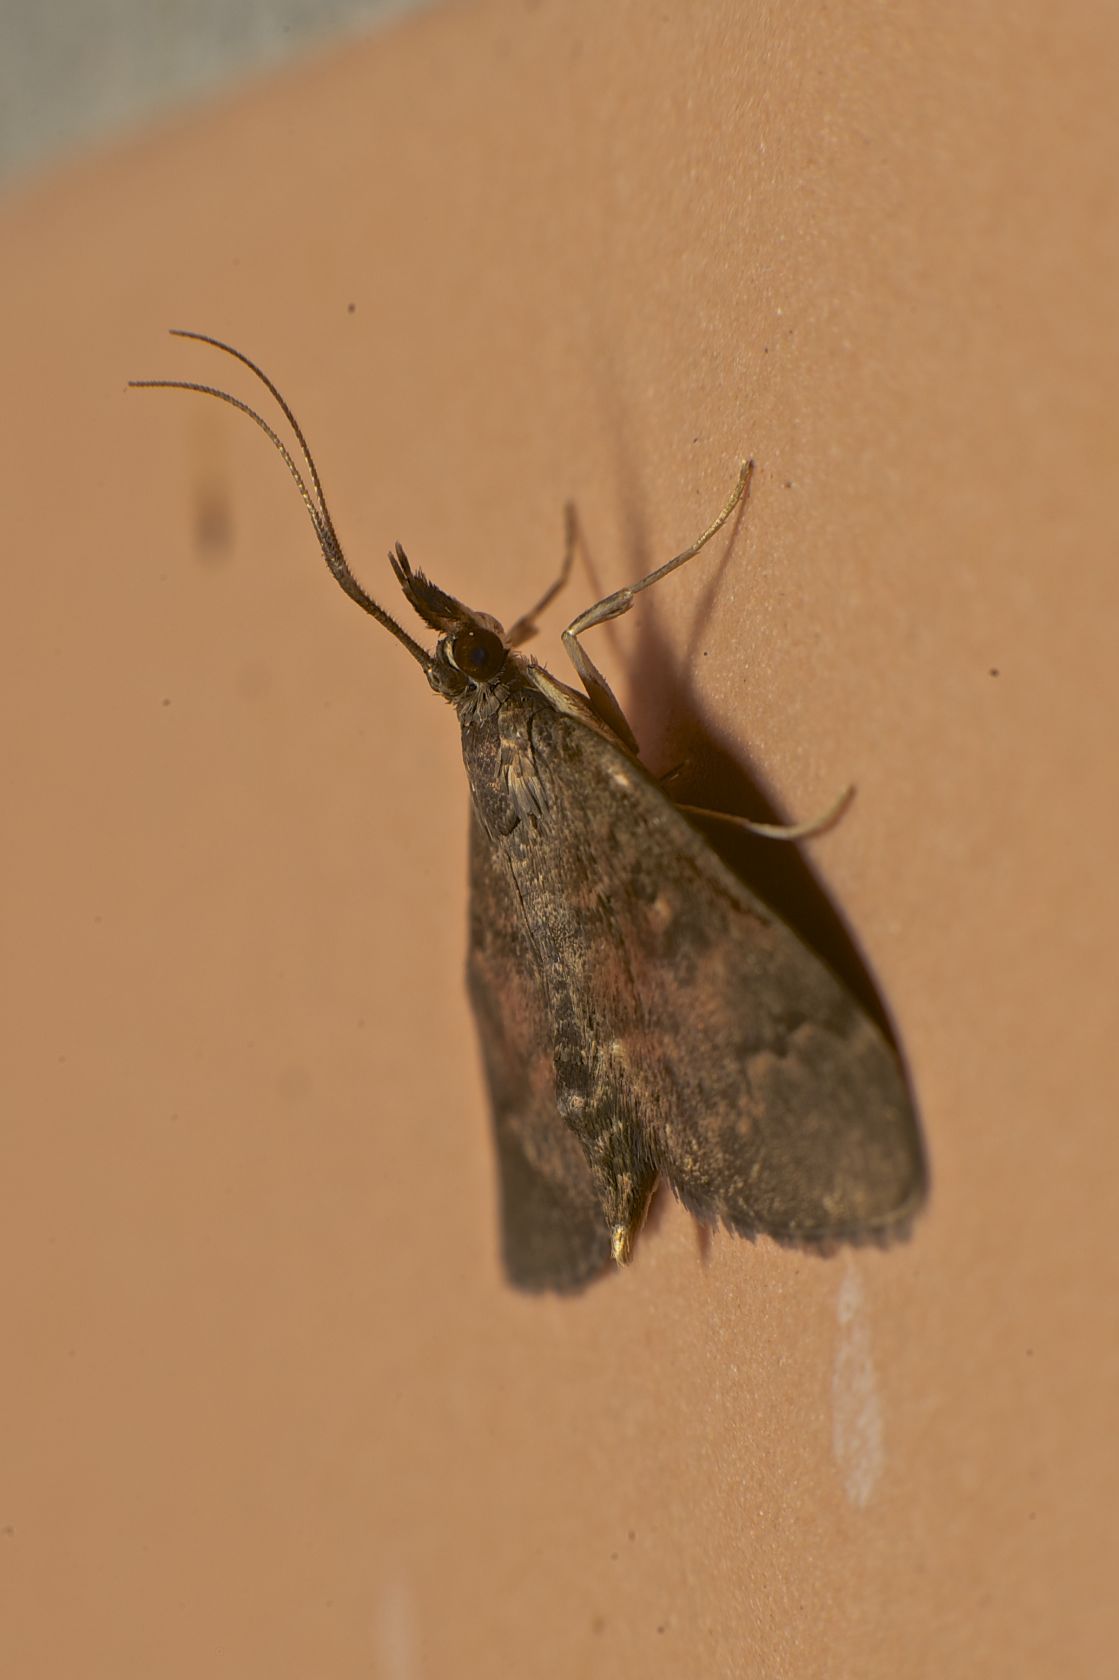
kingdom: Animalia
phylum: Arthropoda
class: Insecta
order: Lepidoptera
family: Crambidae
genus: Camptomastix
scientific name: Camptomastix hisbonalis
